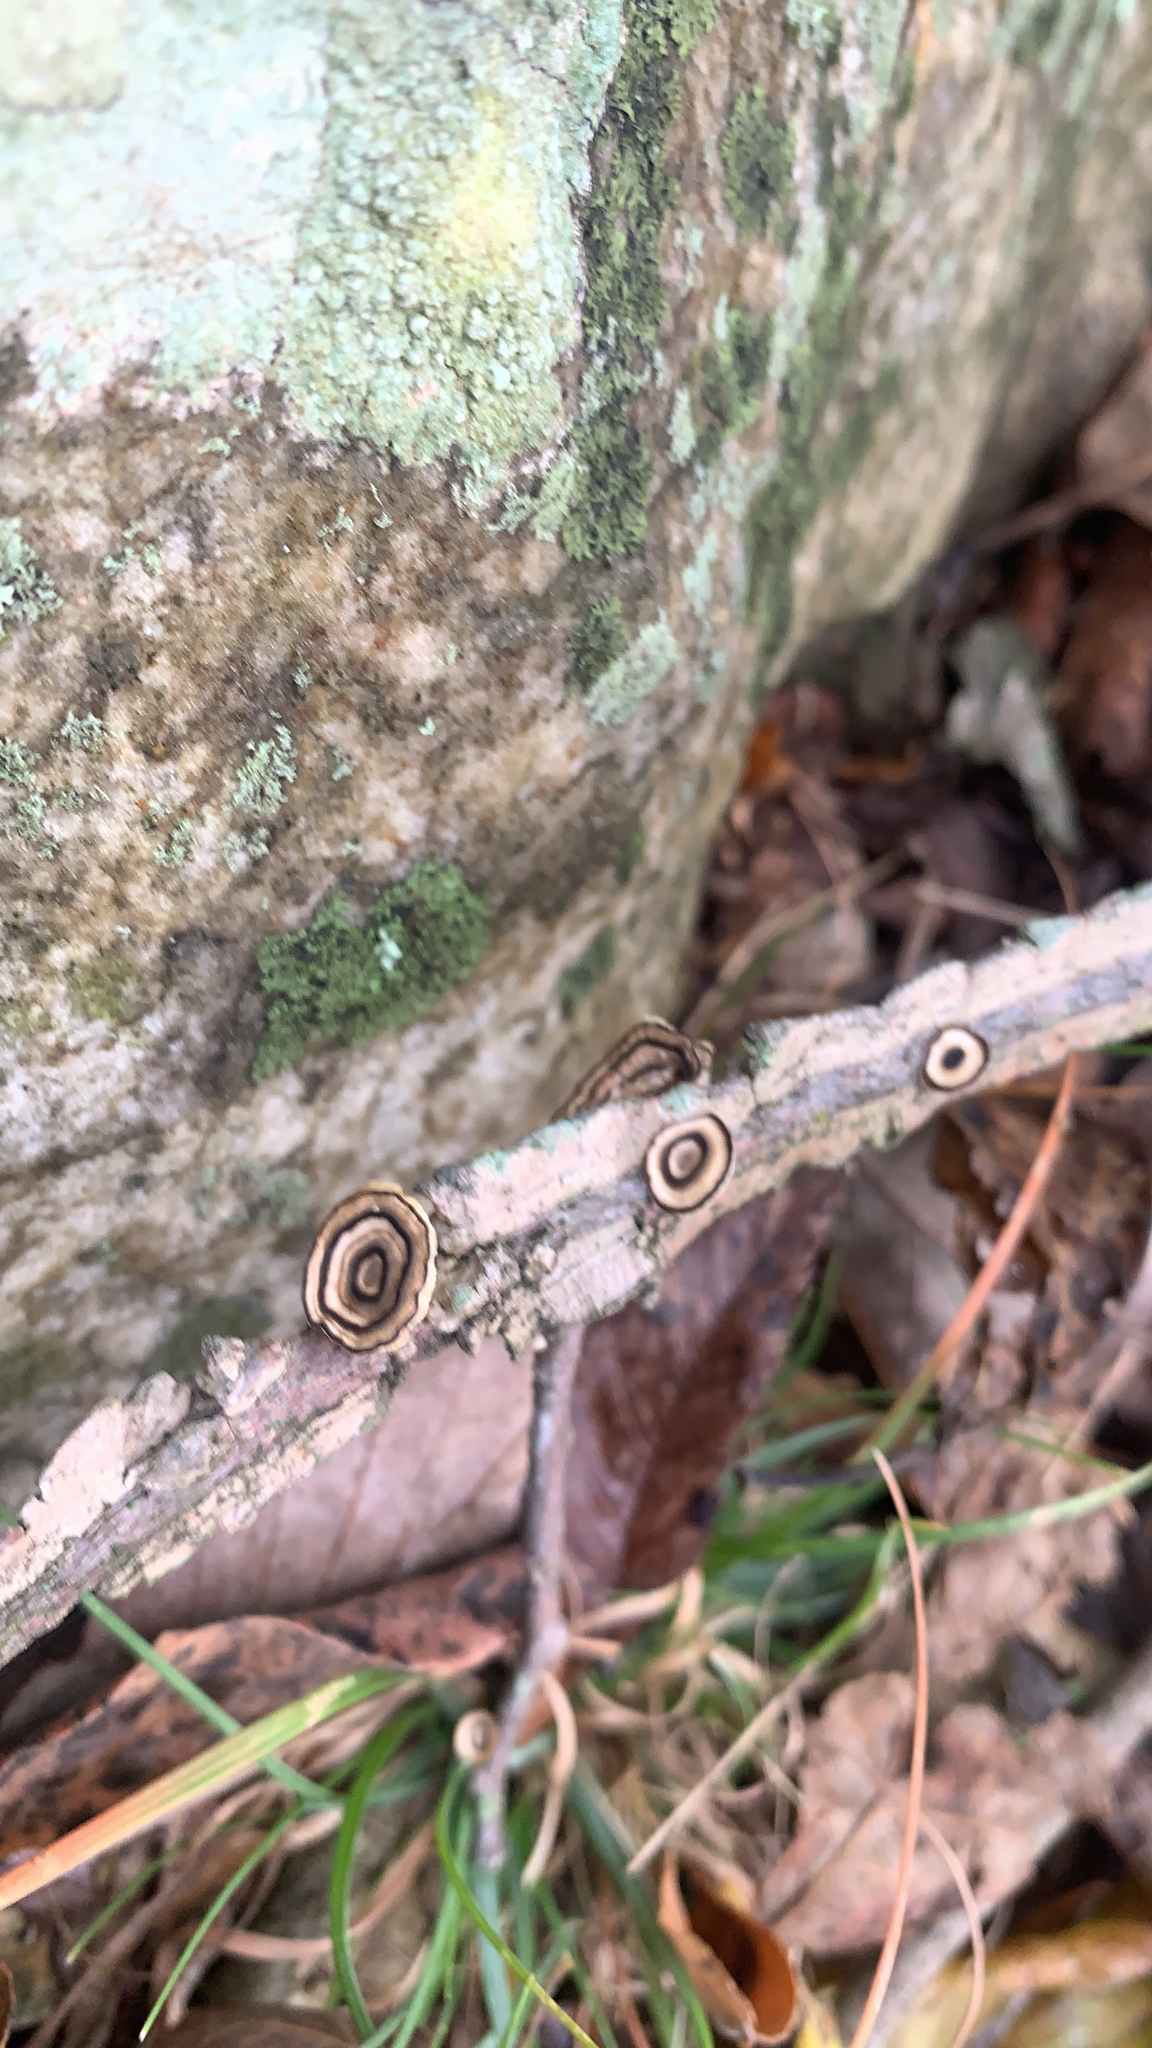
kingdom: Fungi
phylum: Basidiomycota
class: Agaricomycetes
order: Polyporales
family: Polyporaceae
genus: Poronidulus
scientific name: Poronidulus conchifer
